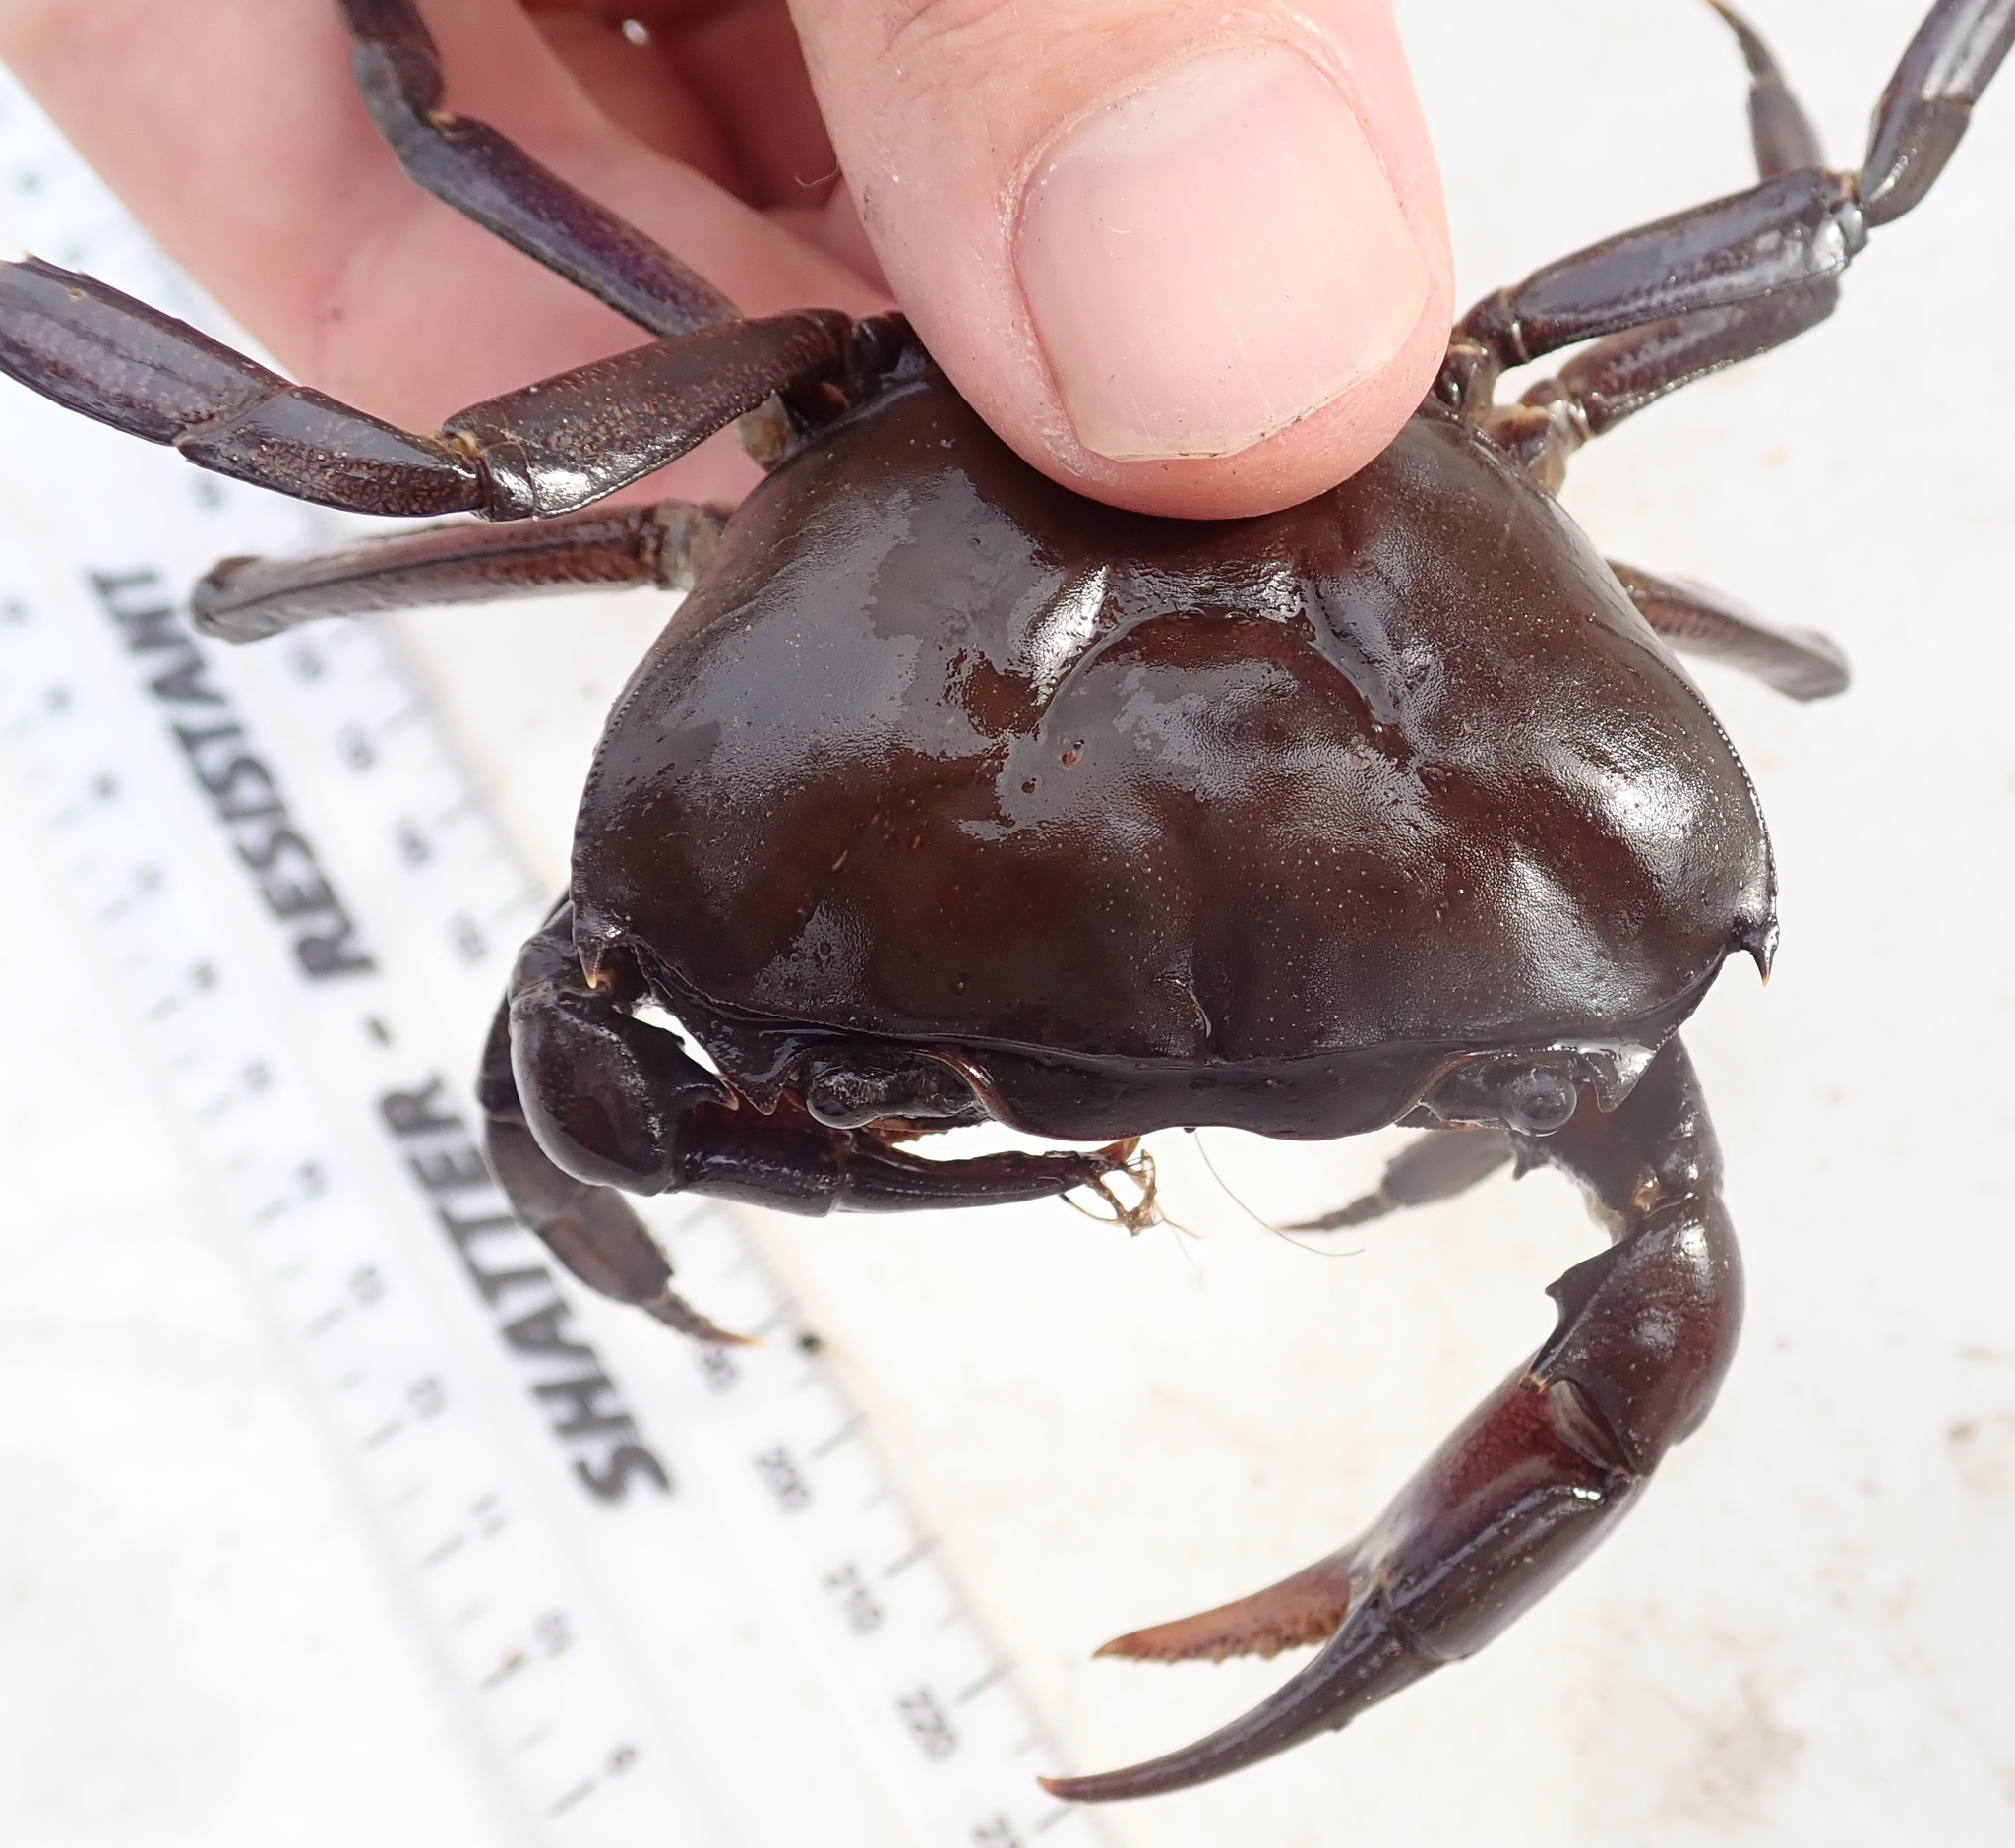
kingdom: Animalia
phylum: Arthropoda
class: Malacostraca
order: Decapoda
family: Potamonautidae
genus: Potamonautes
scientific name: Potamonautes bayonianus
